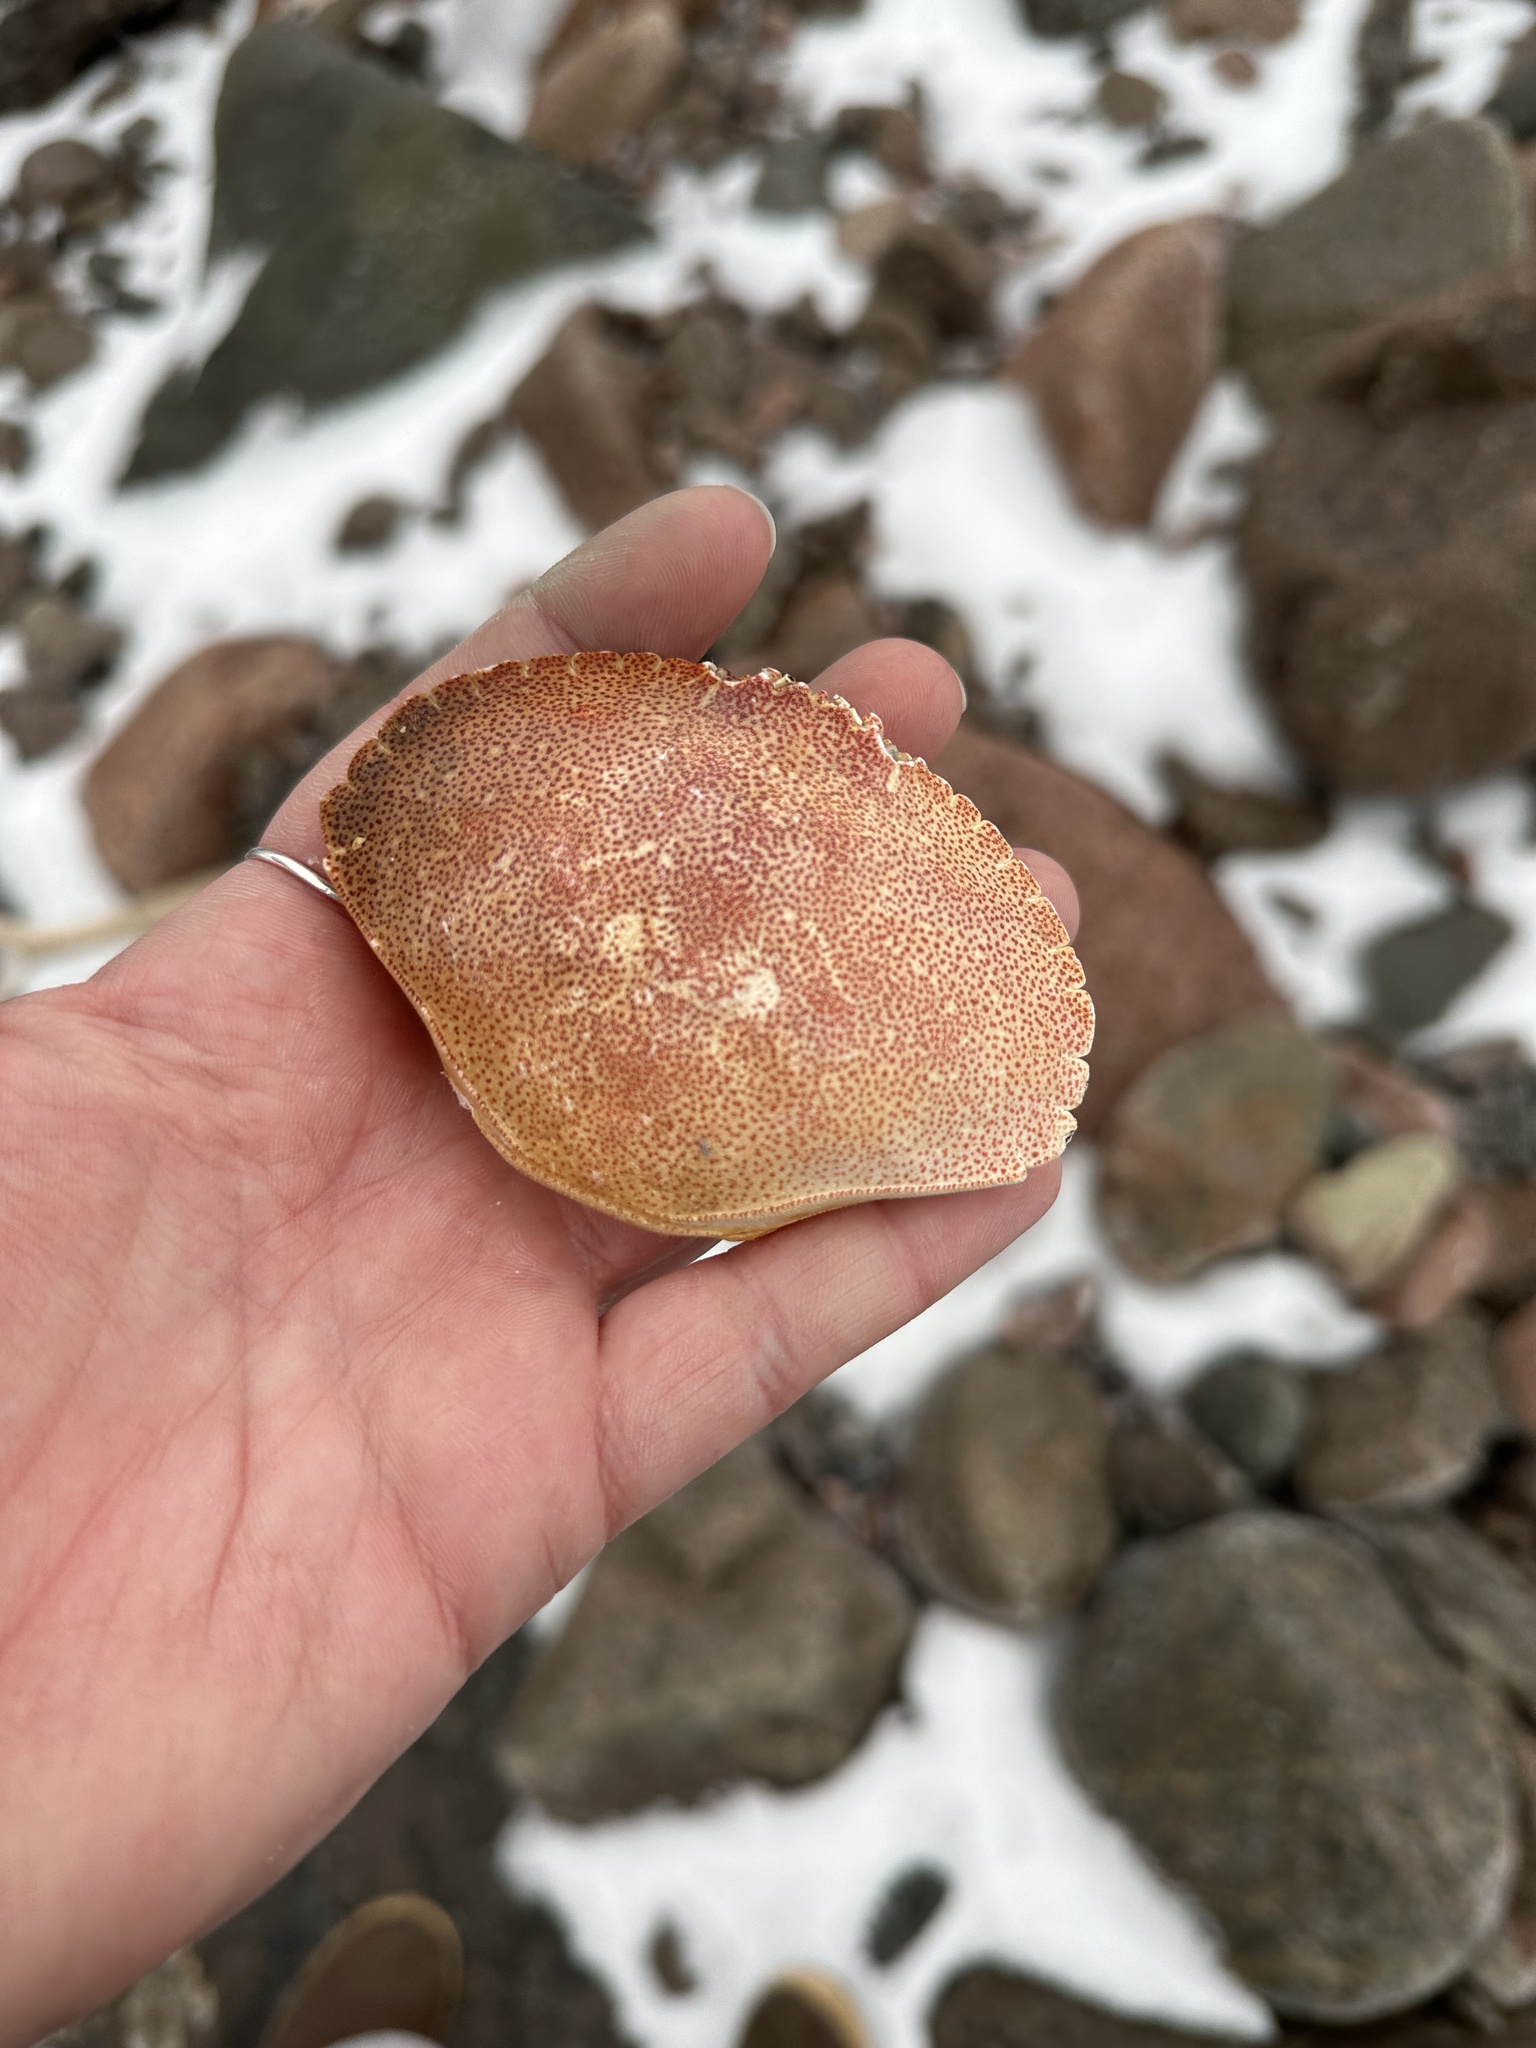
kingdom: Animalia
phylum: Arthropoda
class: Malacostraca
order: Decapoda
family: Cancridae
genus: Cancer
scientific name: Cancer irroratus
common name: Atlantic rock crab
